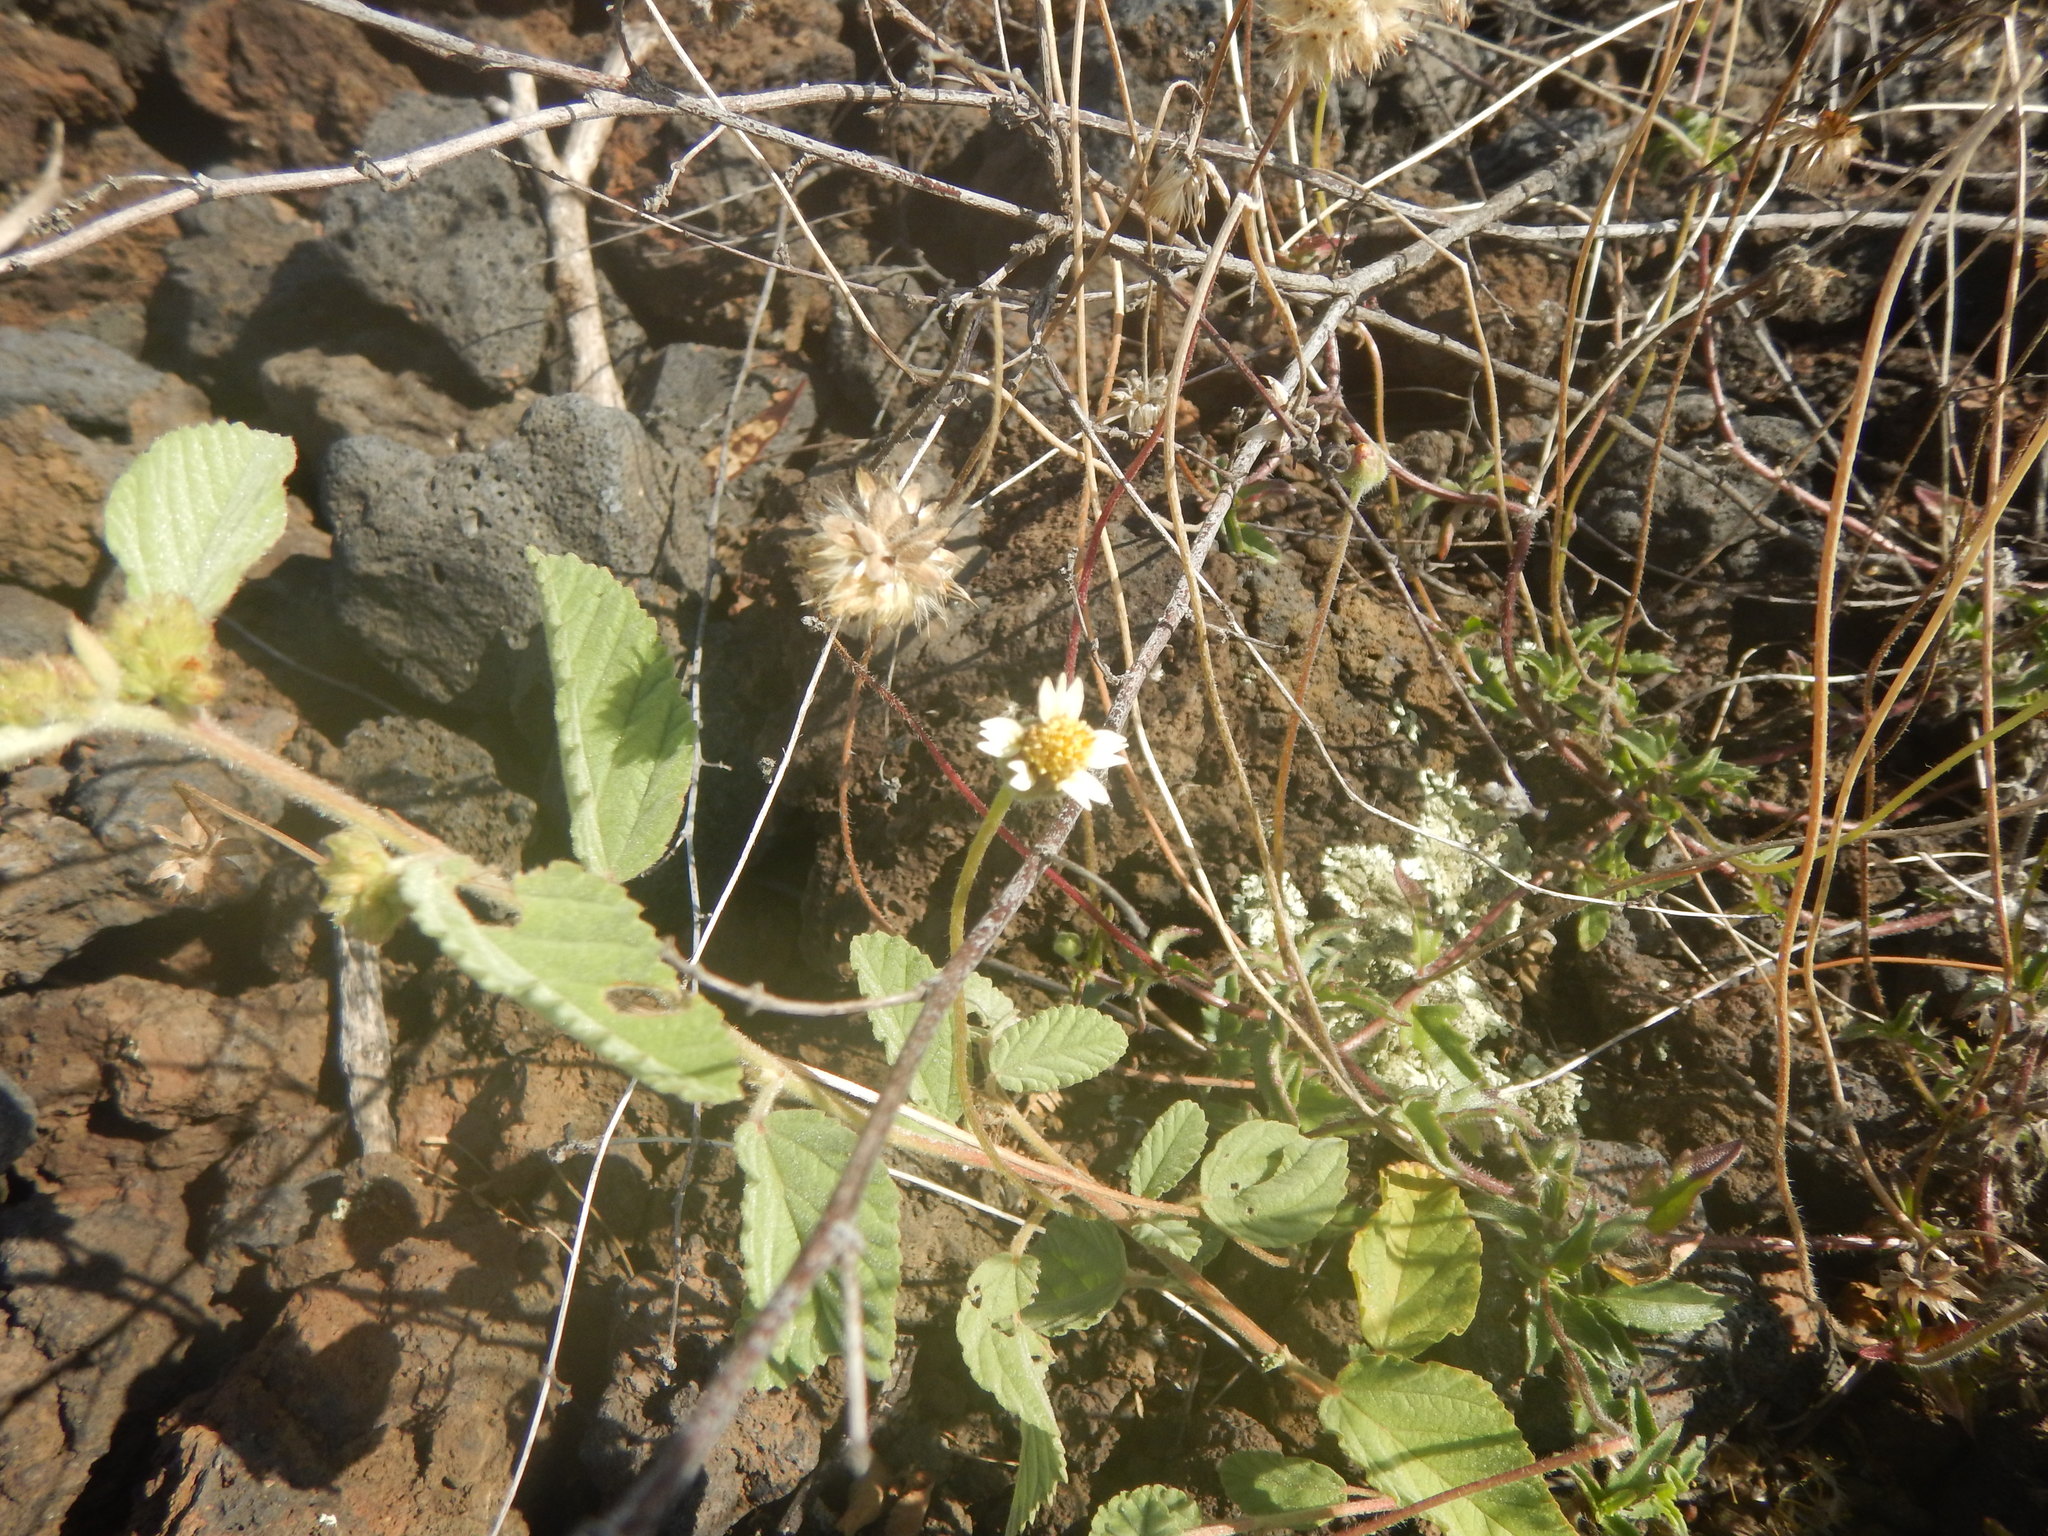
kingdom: Plantae
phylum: Tracheophyta
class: Magnoliopsida
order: Asterales
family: Asteraceae
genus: Tridax
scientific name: Tridax procumbens
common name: Coatbuttons
